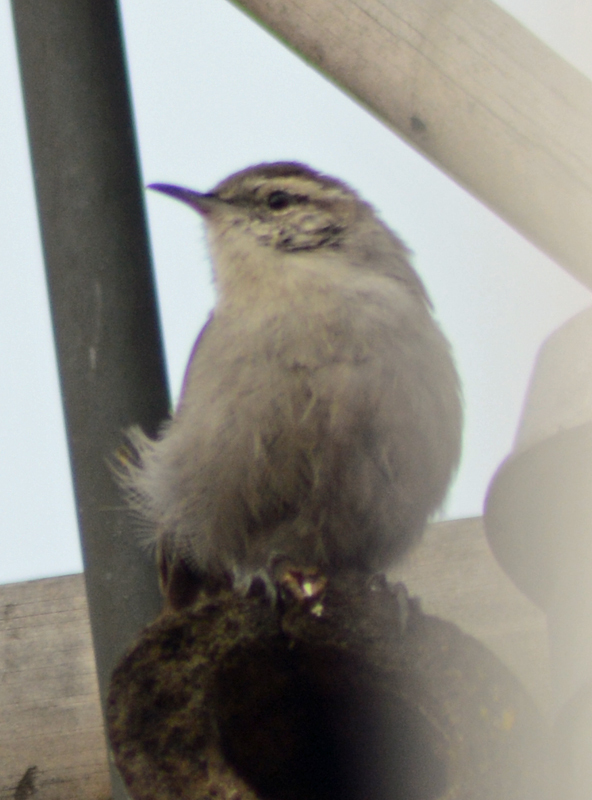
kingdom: Animalia
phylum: Chordata
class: Aves
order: Passeriformes
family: Troglodytidae
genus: Thryomanes
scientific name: Thryomanes bewickii
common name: Bewick's wren
